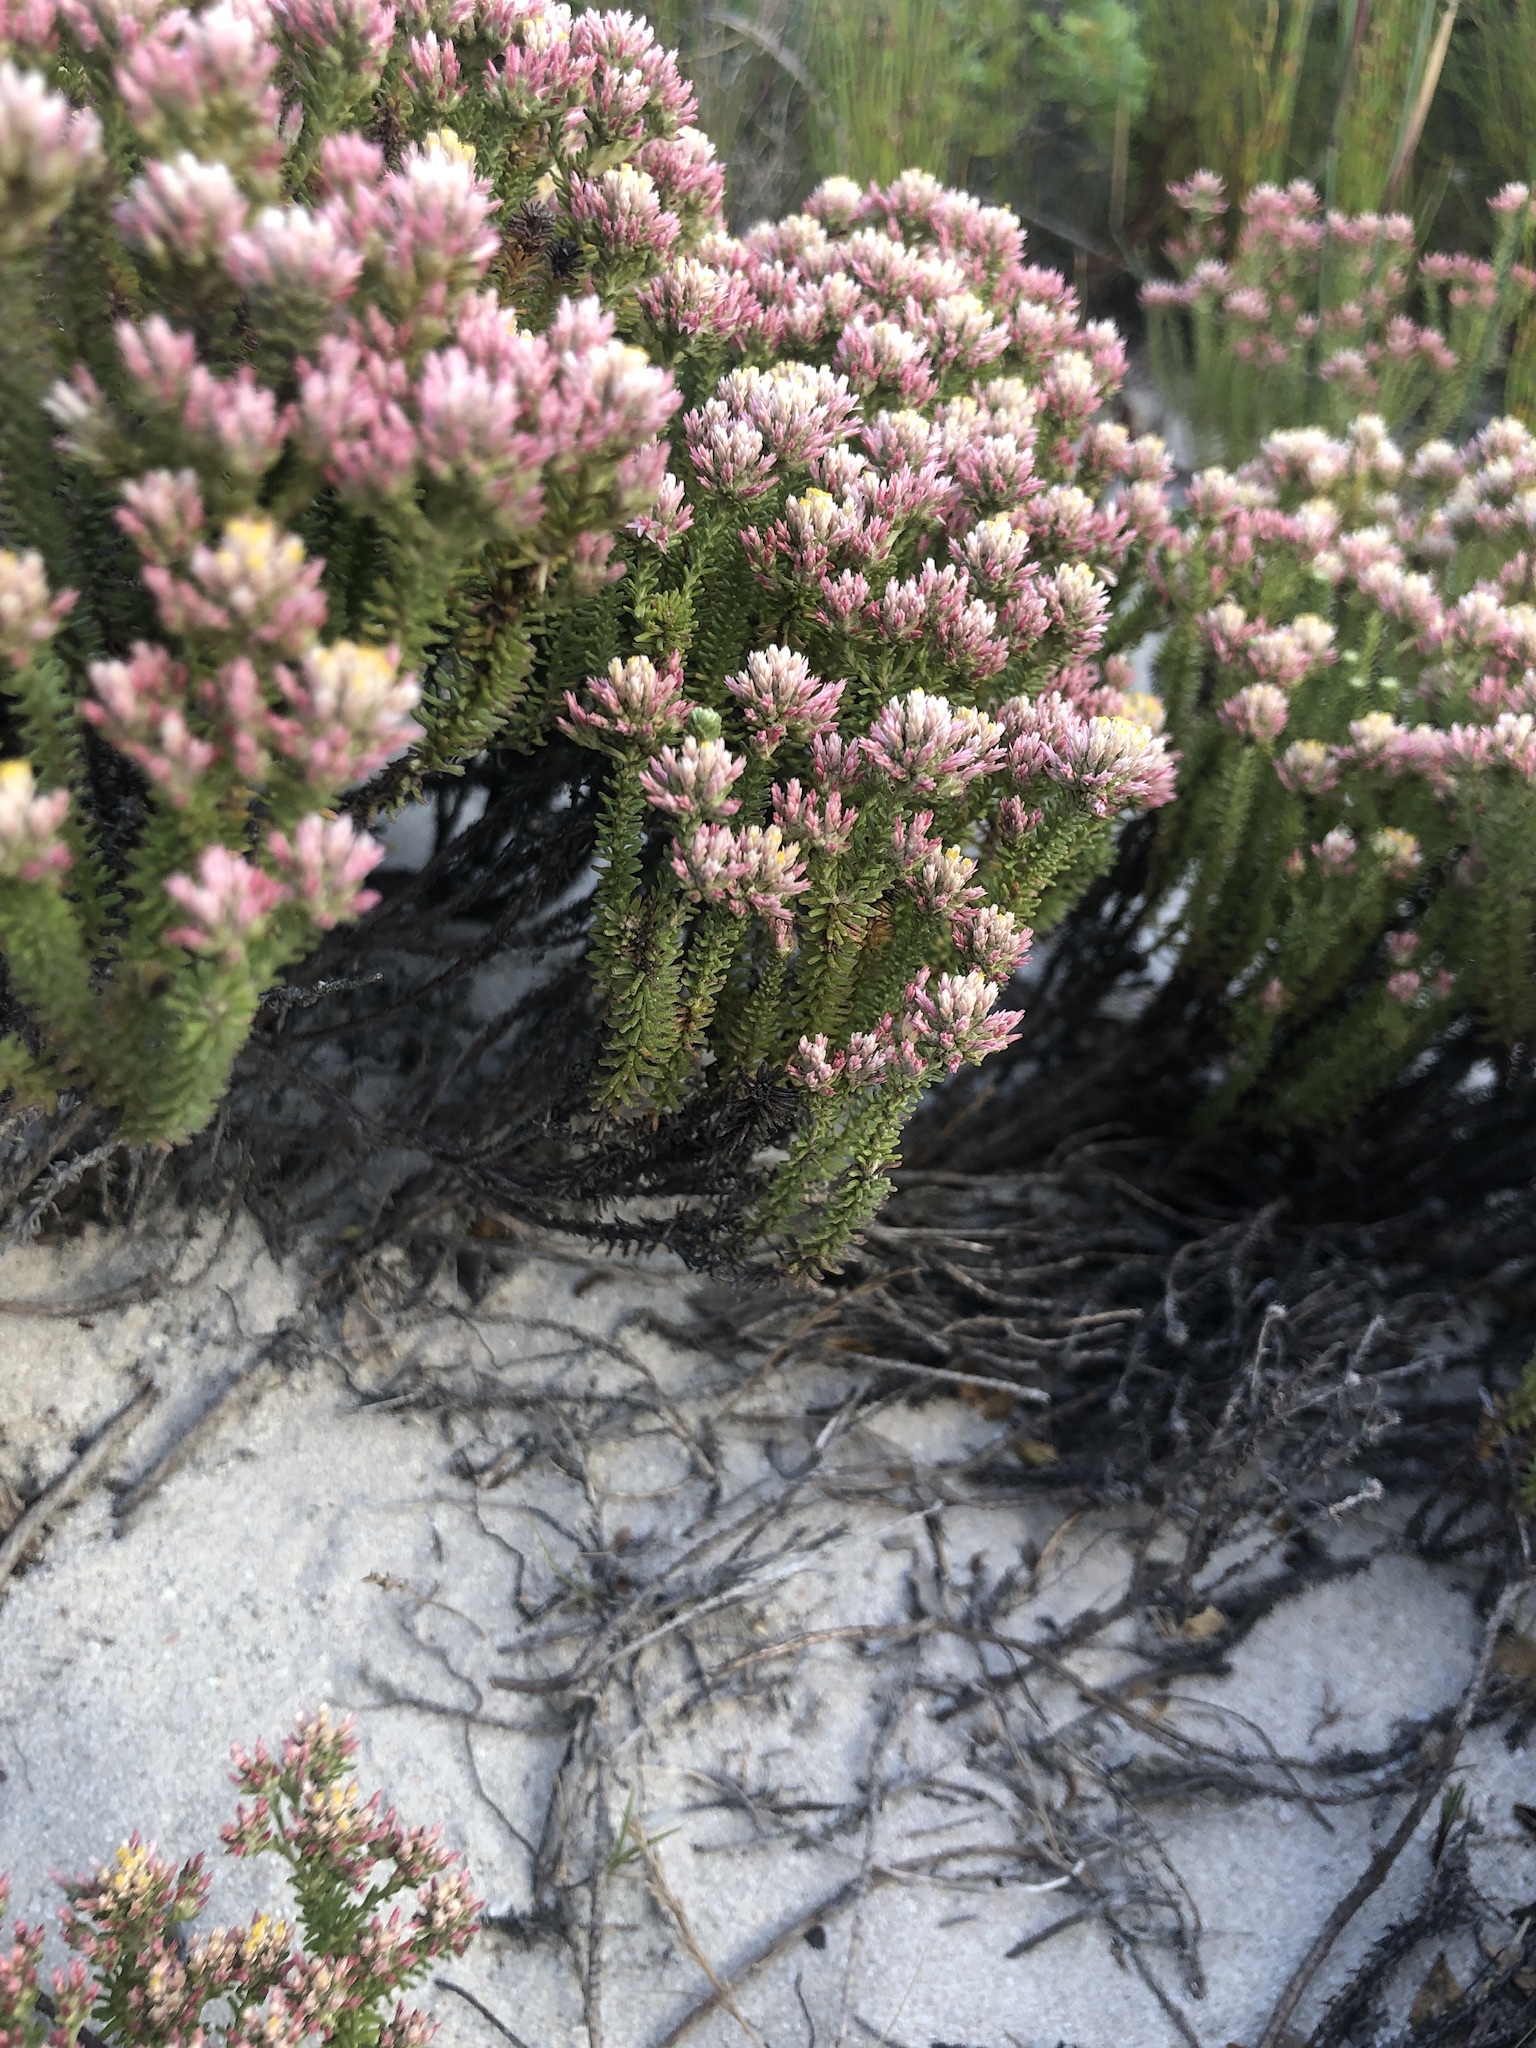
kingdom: Plantae
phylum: Tracheophyta
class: Magnoliopsida
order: Asterales
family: Asteraceae
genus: Helichrysum
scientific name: Helichrysum niveum
